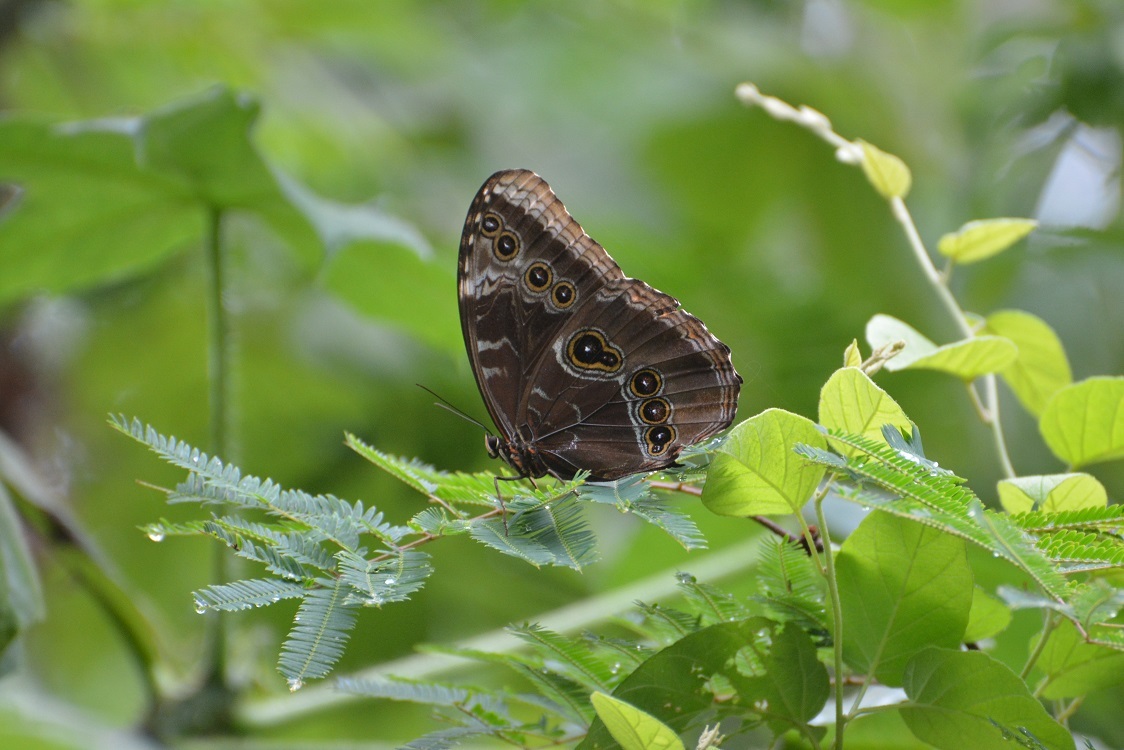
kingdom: Animalia
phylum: Arthropoda
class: Insecta
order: Lepidoptera
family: Nymphalidae
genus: Morpho
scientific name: Morpho helenor
